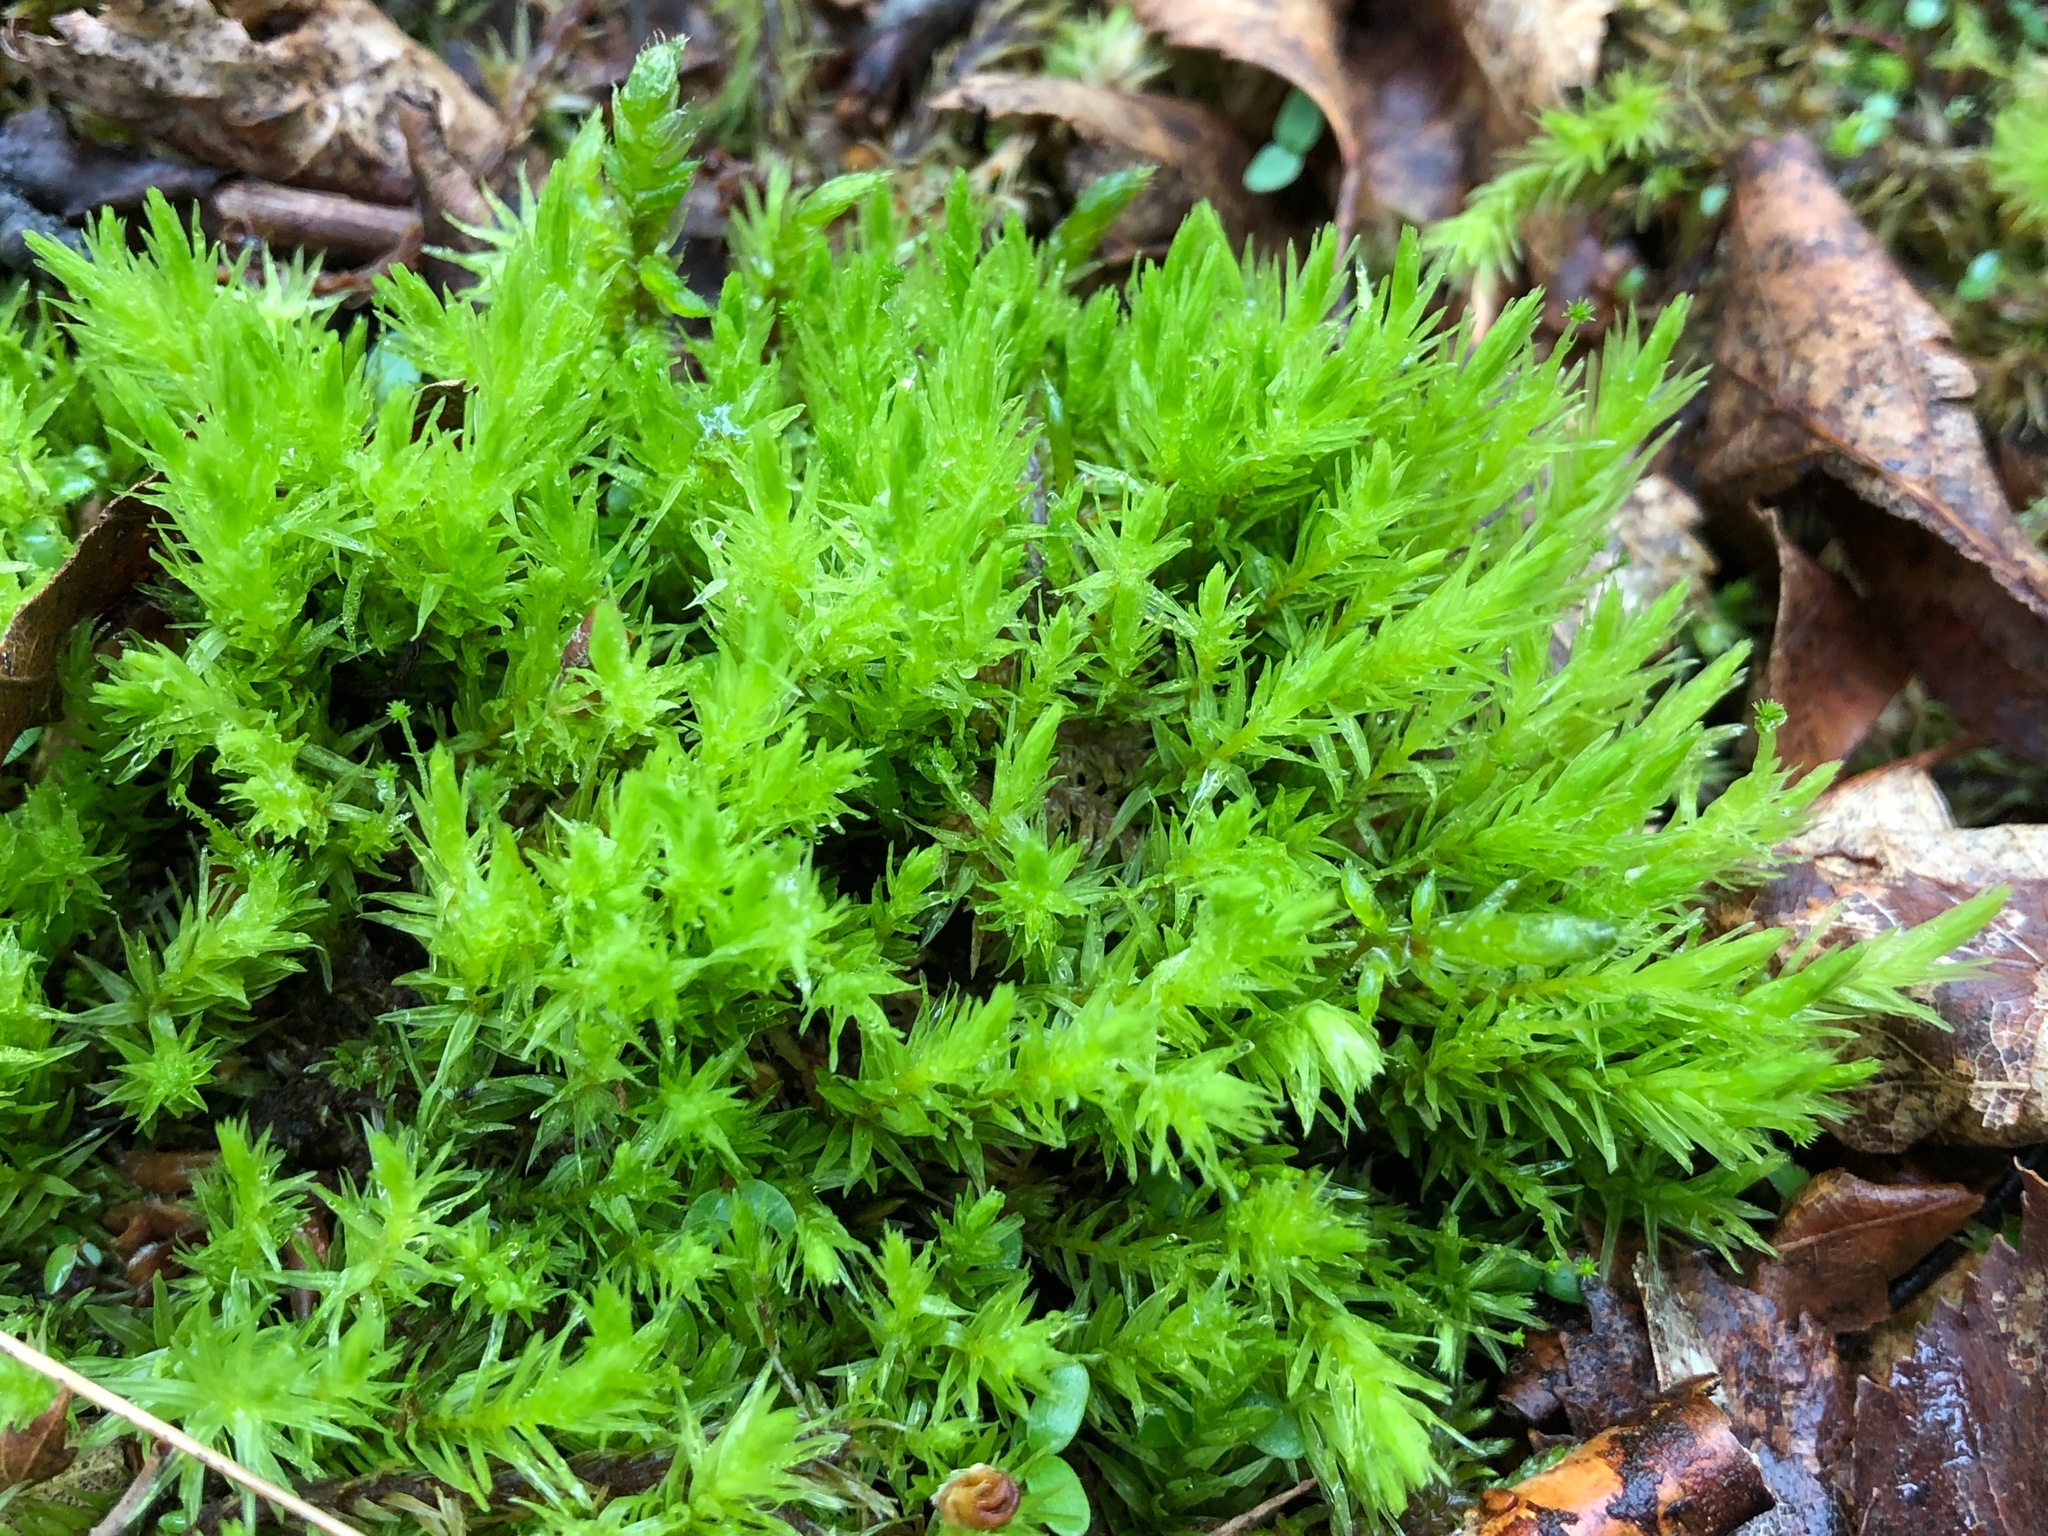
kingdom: Plantae
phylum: Bryophyta
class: Bryopsida
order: Aulacomniales
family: Aulacomniaceae
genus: Aulacomnium
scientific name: Aulacomnium androgynum
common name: Little groove moss
